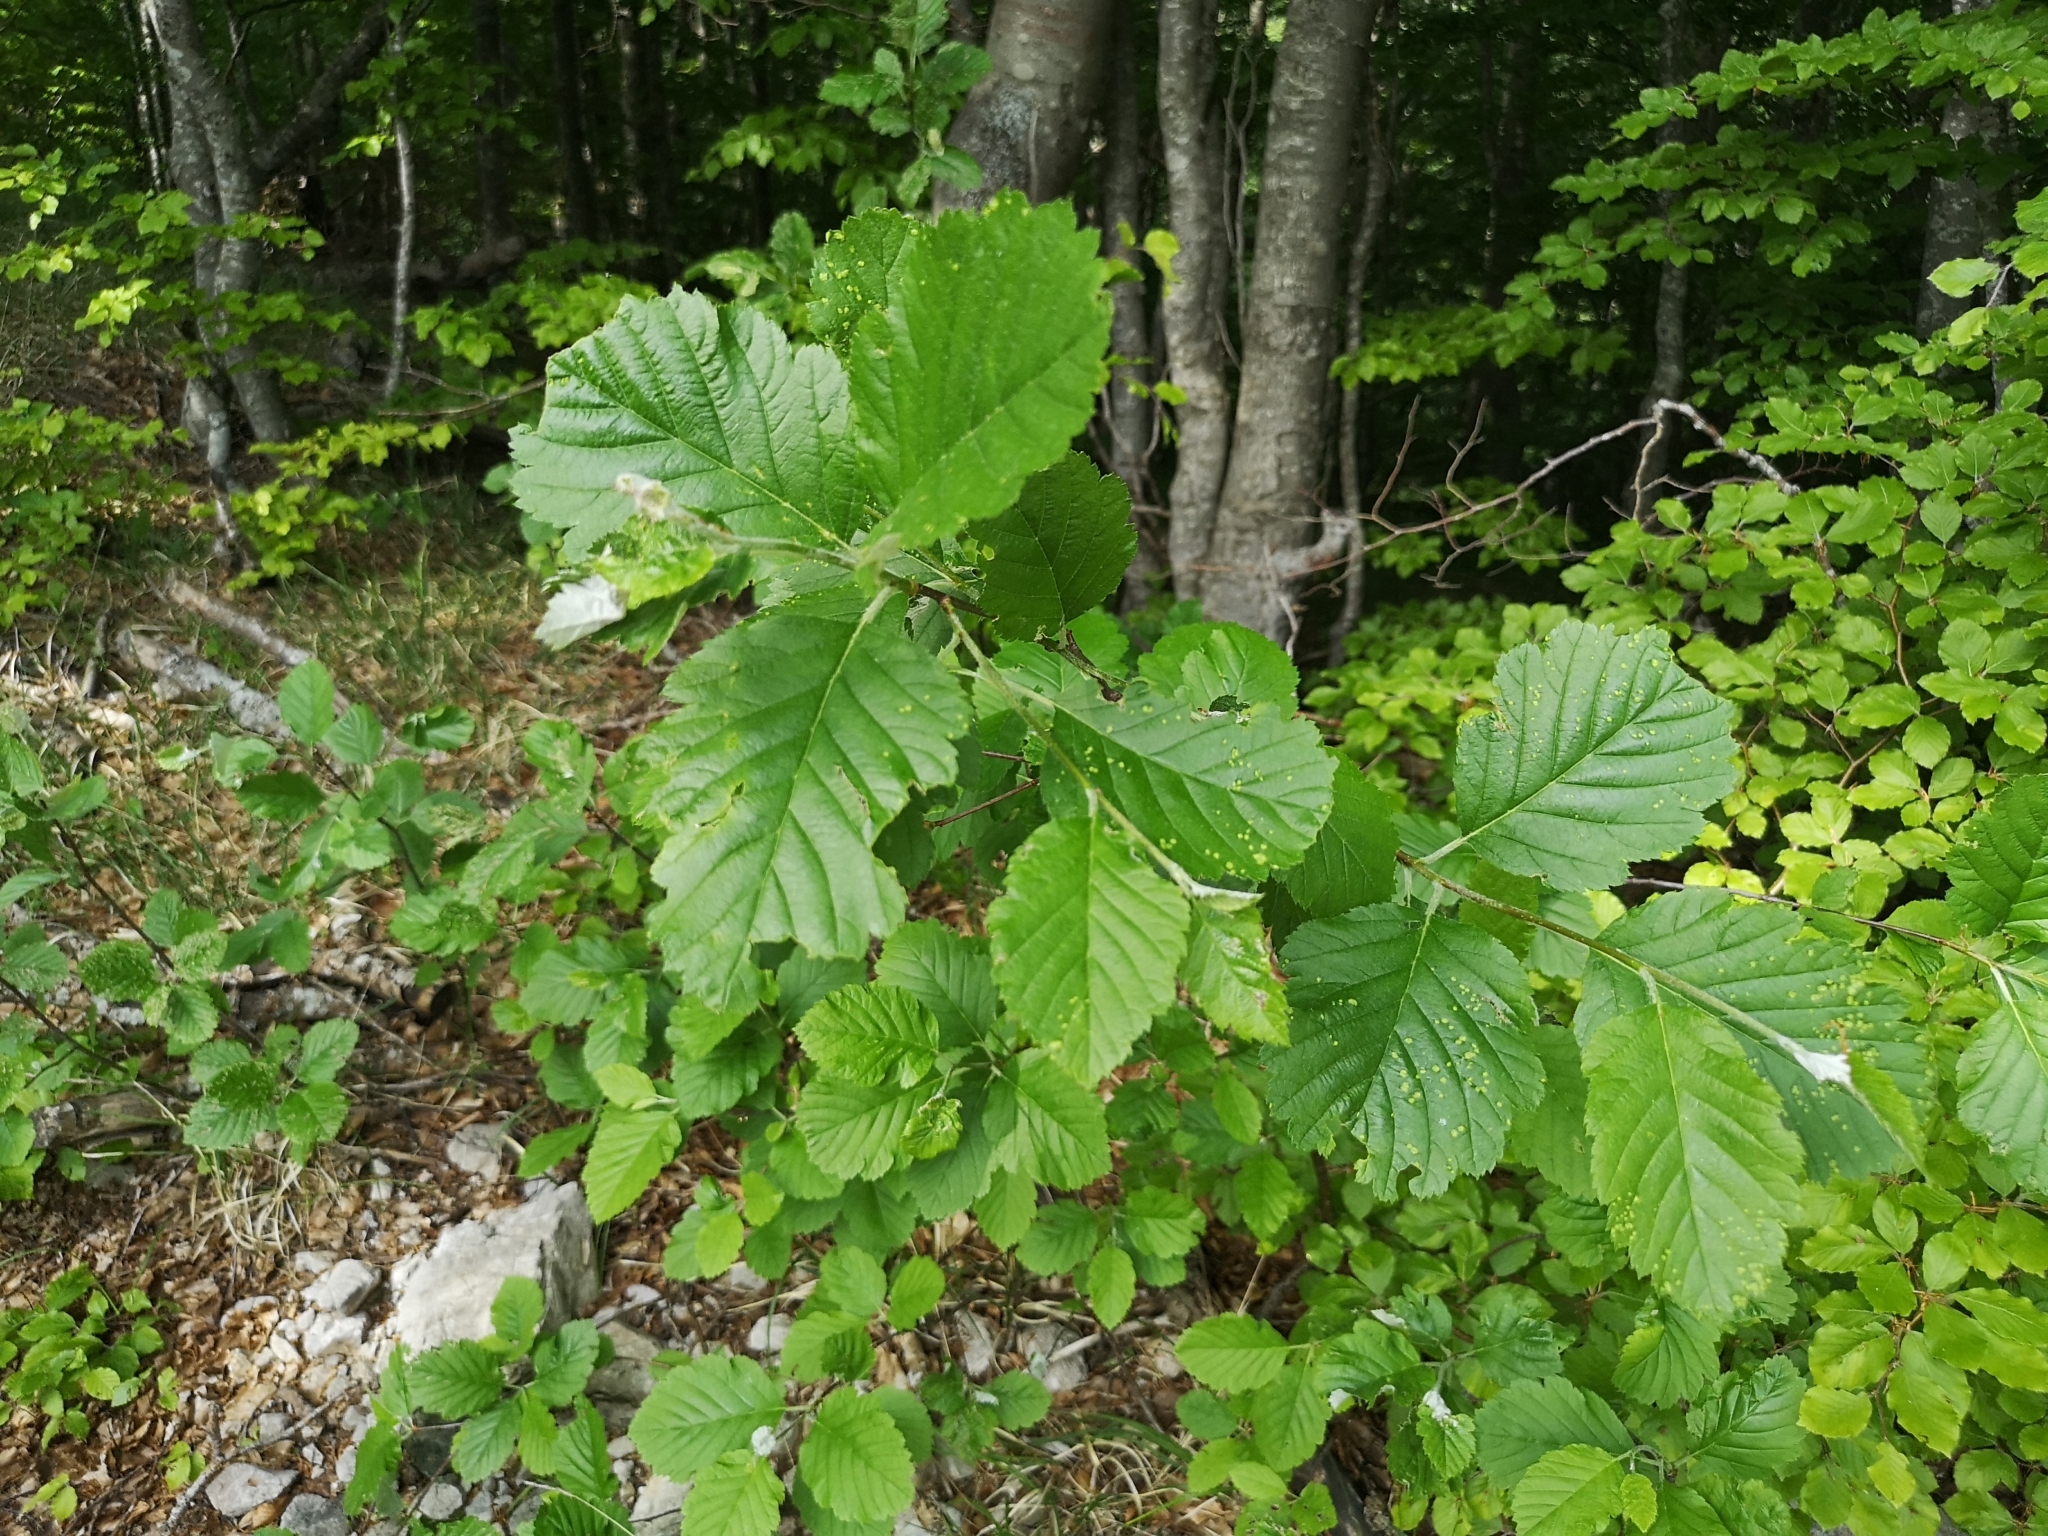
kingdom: Plantae
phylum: Tracheophyta
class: Magnoliopsida
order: Rosales
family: Rosaceae
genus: Hedlundia
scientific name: Hedlundia austriaca
